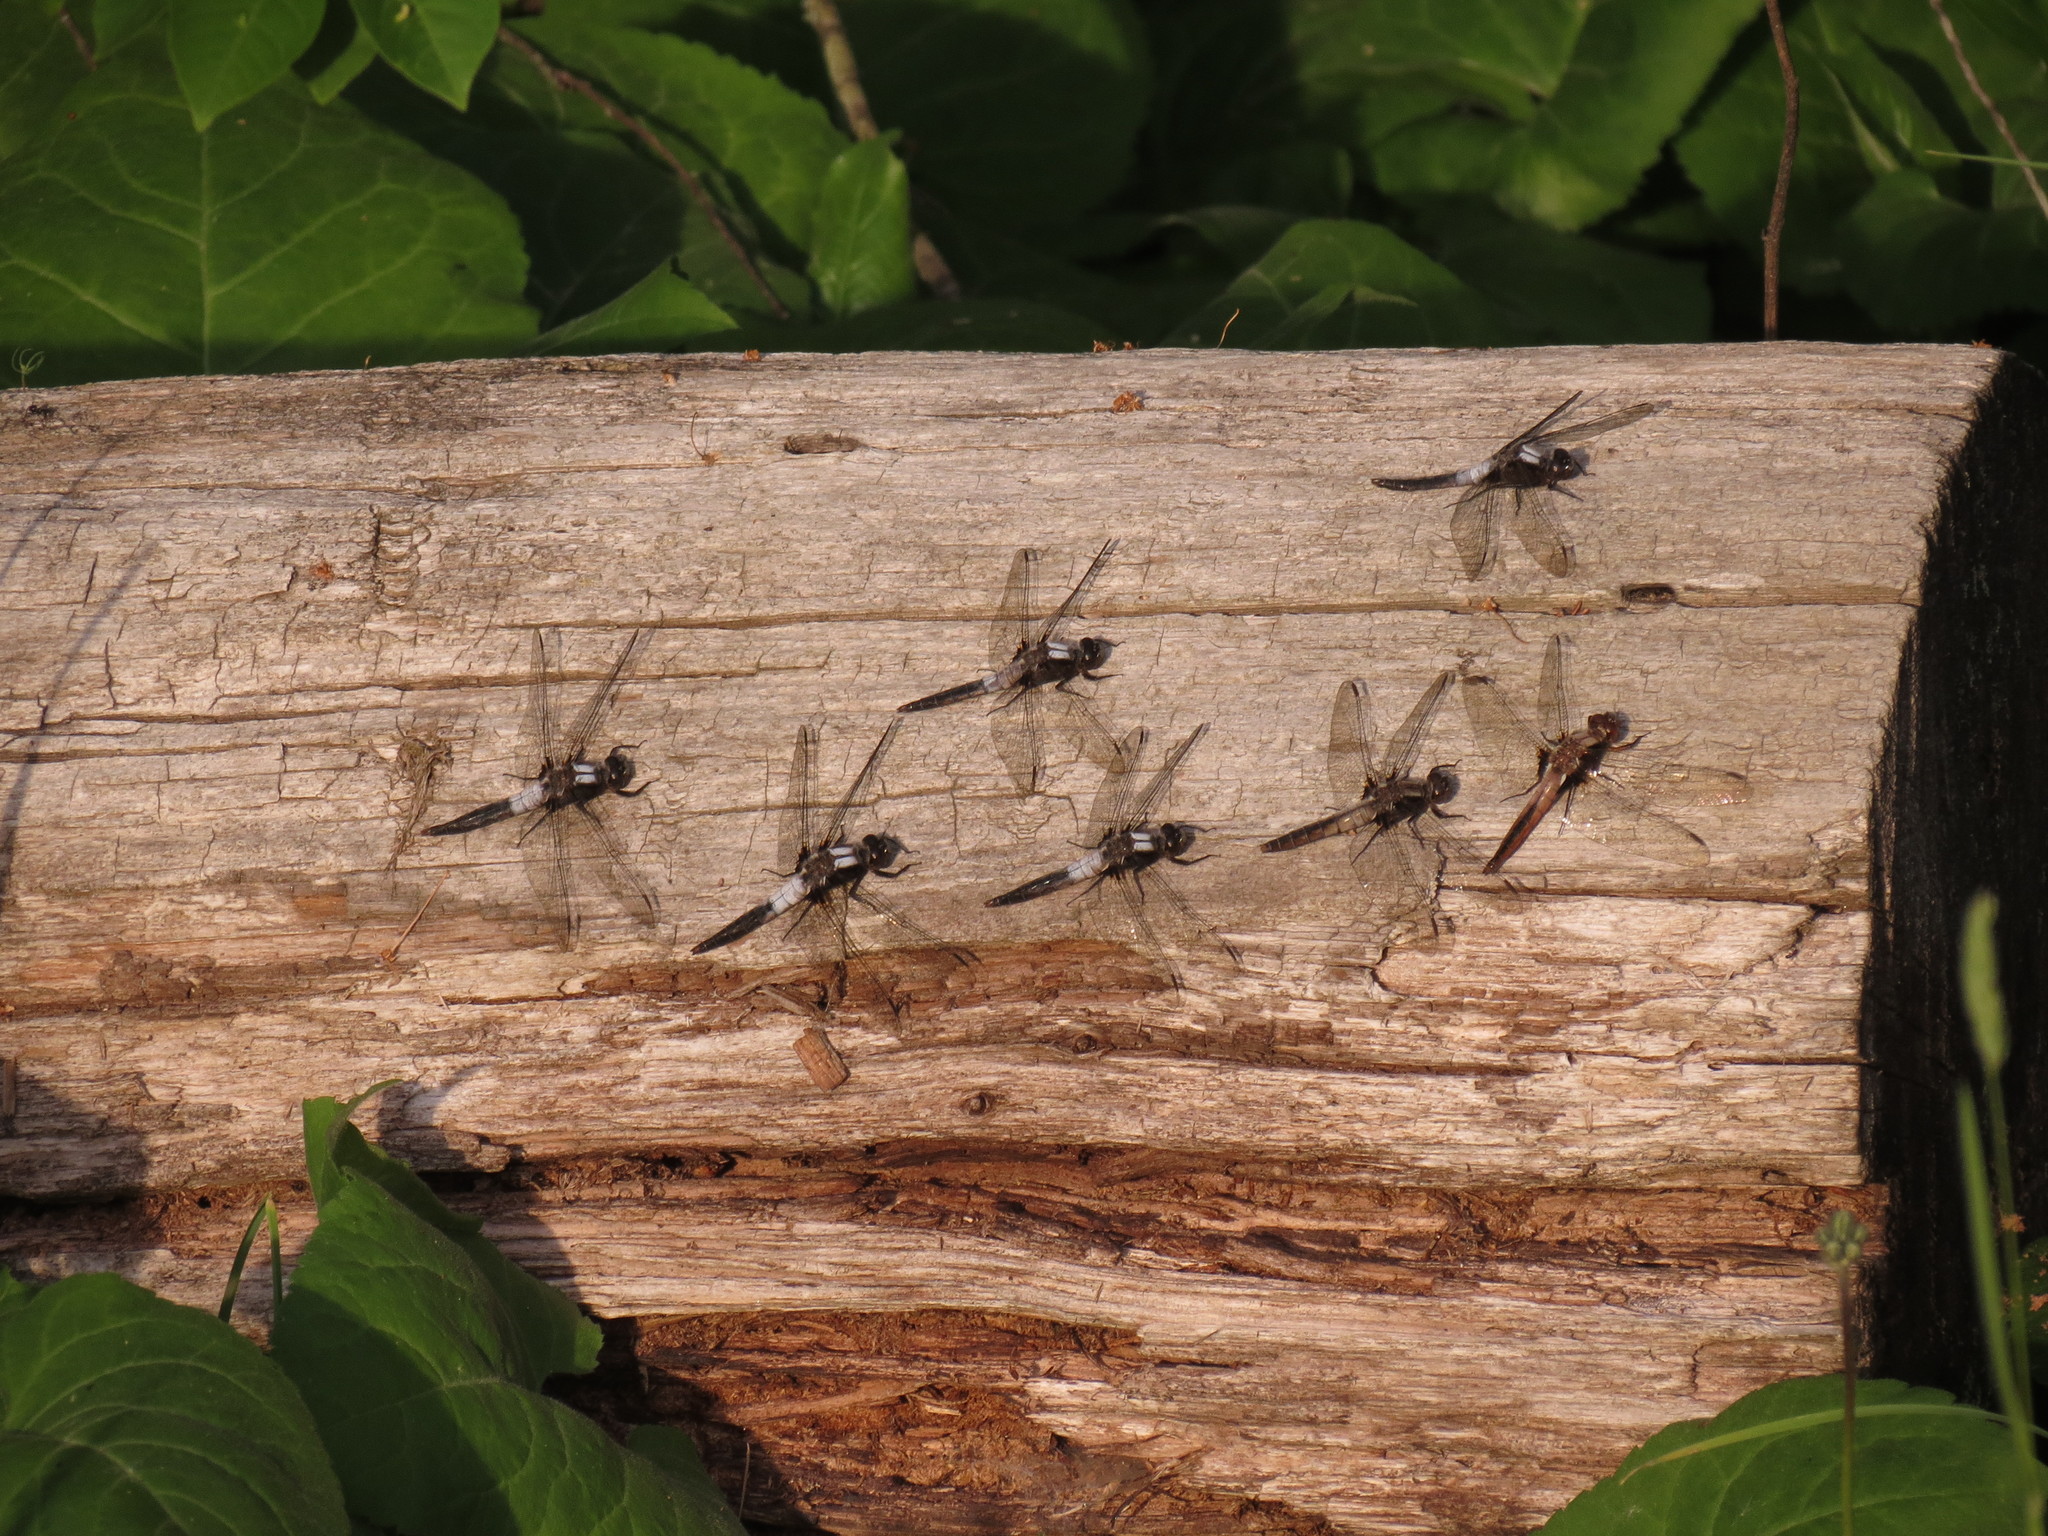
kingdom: Animalia
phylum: Arthropoda
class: Insecta
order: Odonata
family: Libellulidae
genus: Ladona
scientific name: Ladona julia
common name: Chalk-fronted corporal
